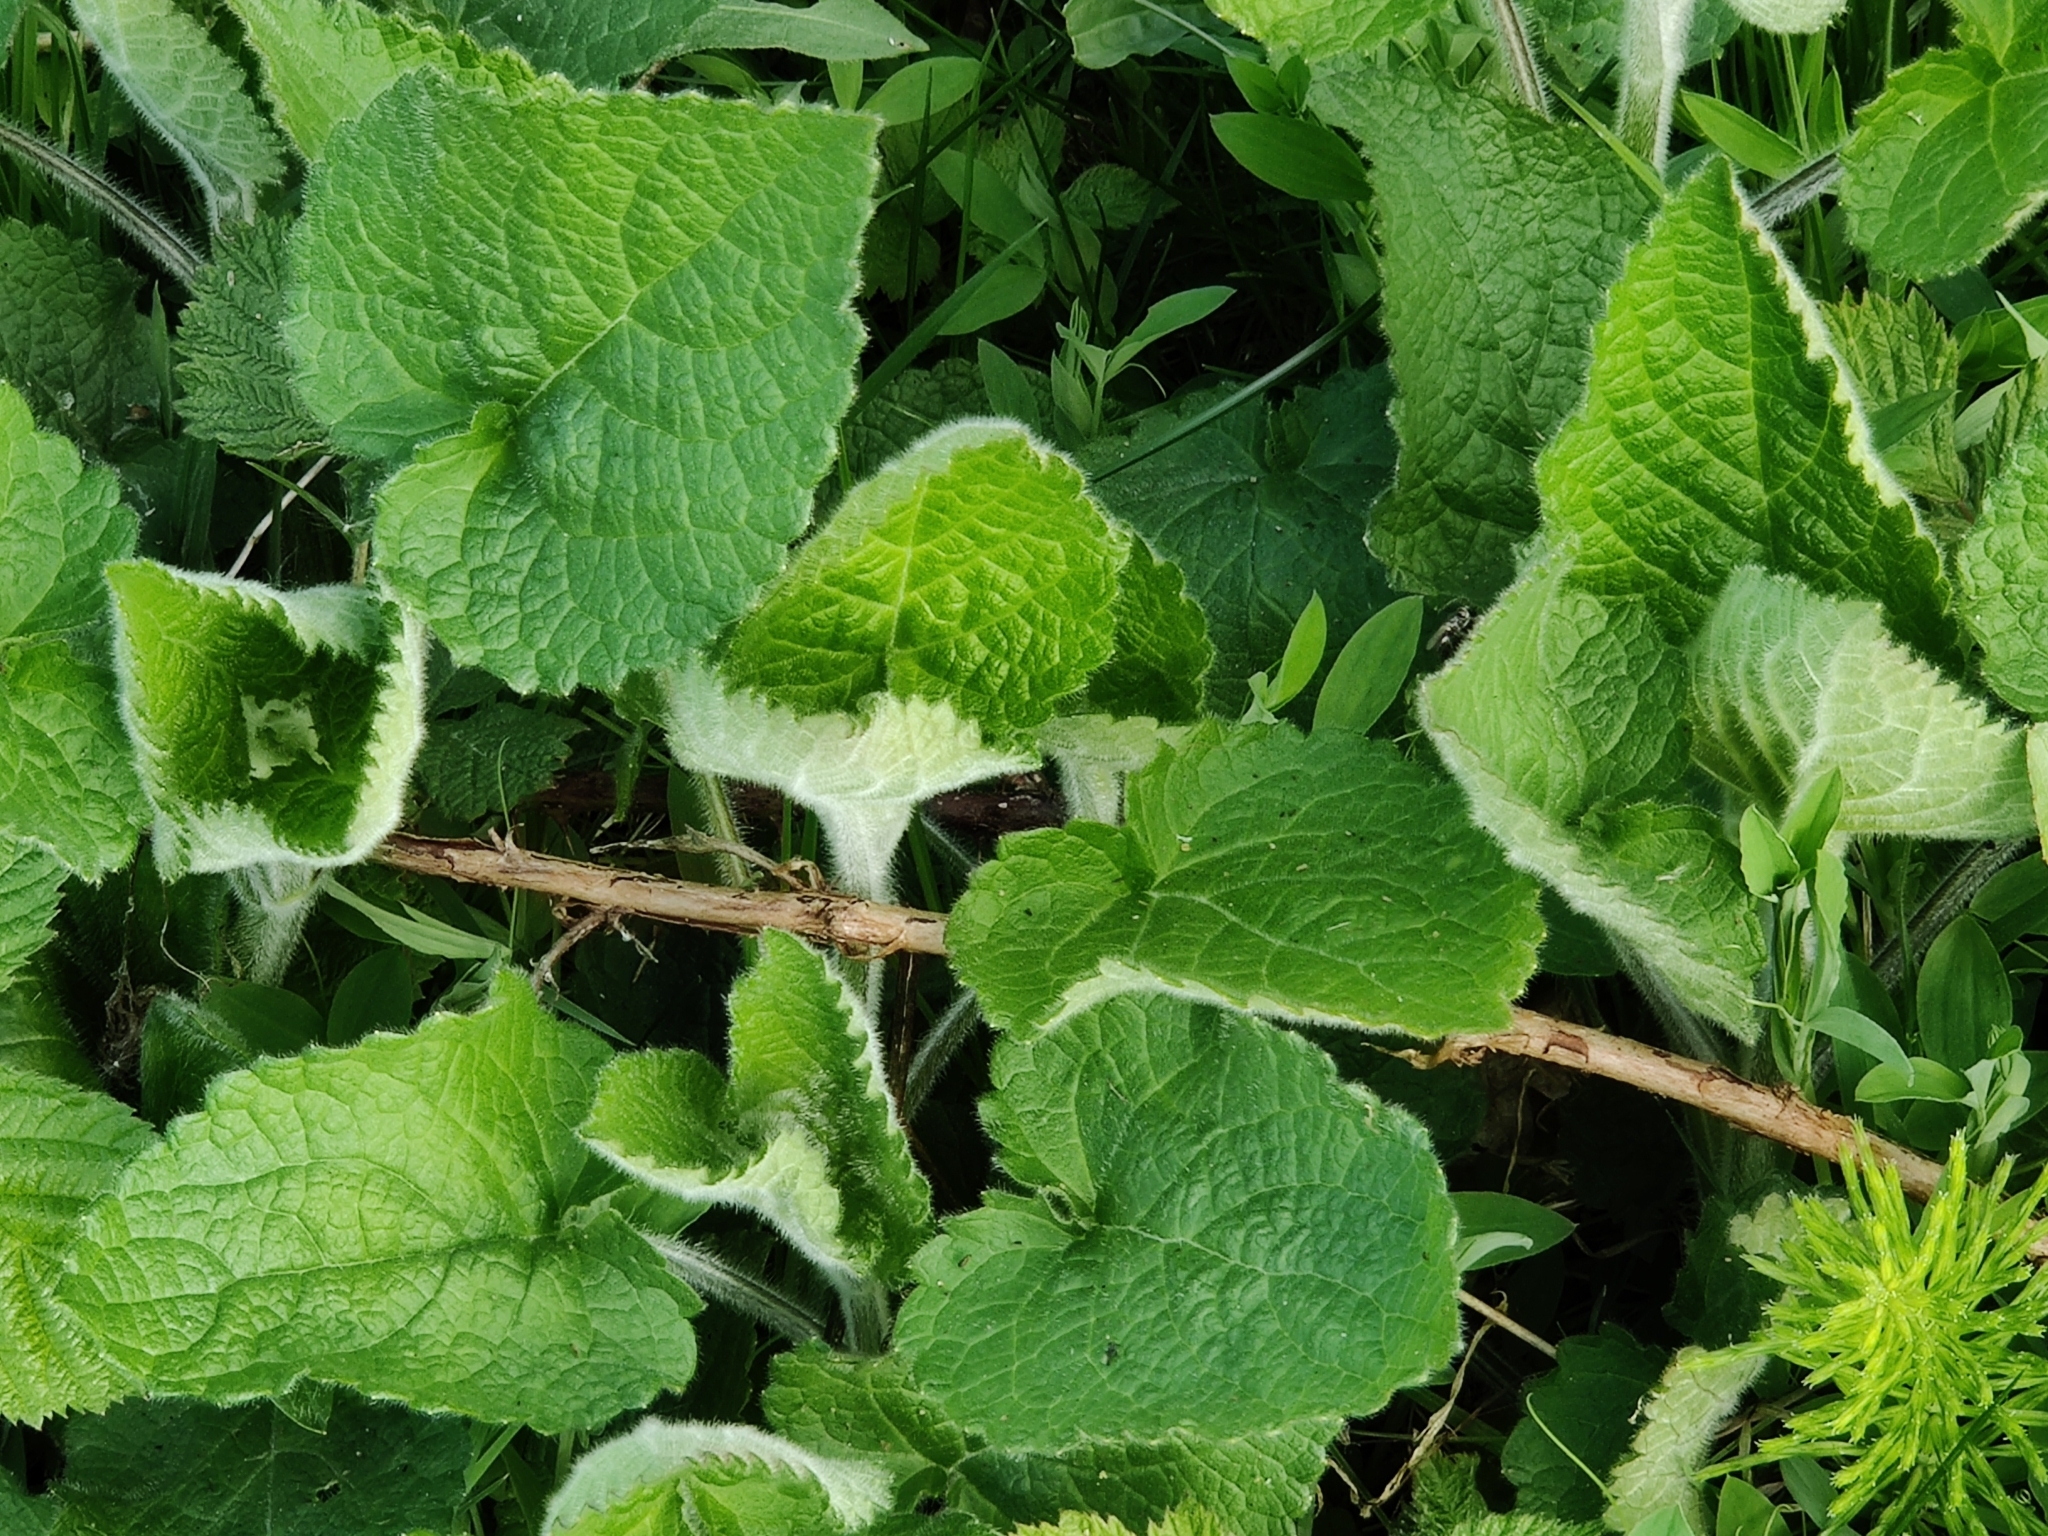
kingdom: Plantae
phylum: Tracheophyta
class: Magnoliopsida
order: Lamiales
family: Lamiaceae
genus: Stachys
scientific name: Stachys sylvatica
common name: Hedge woundwort
